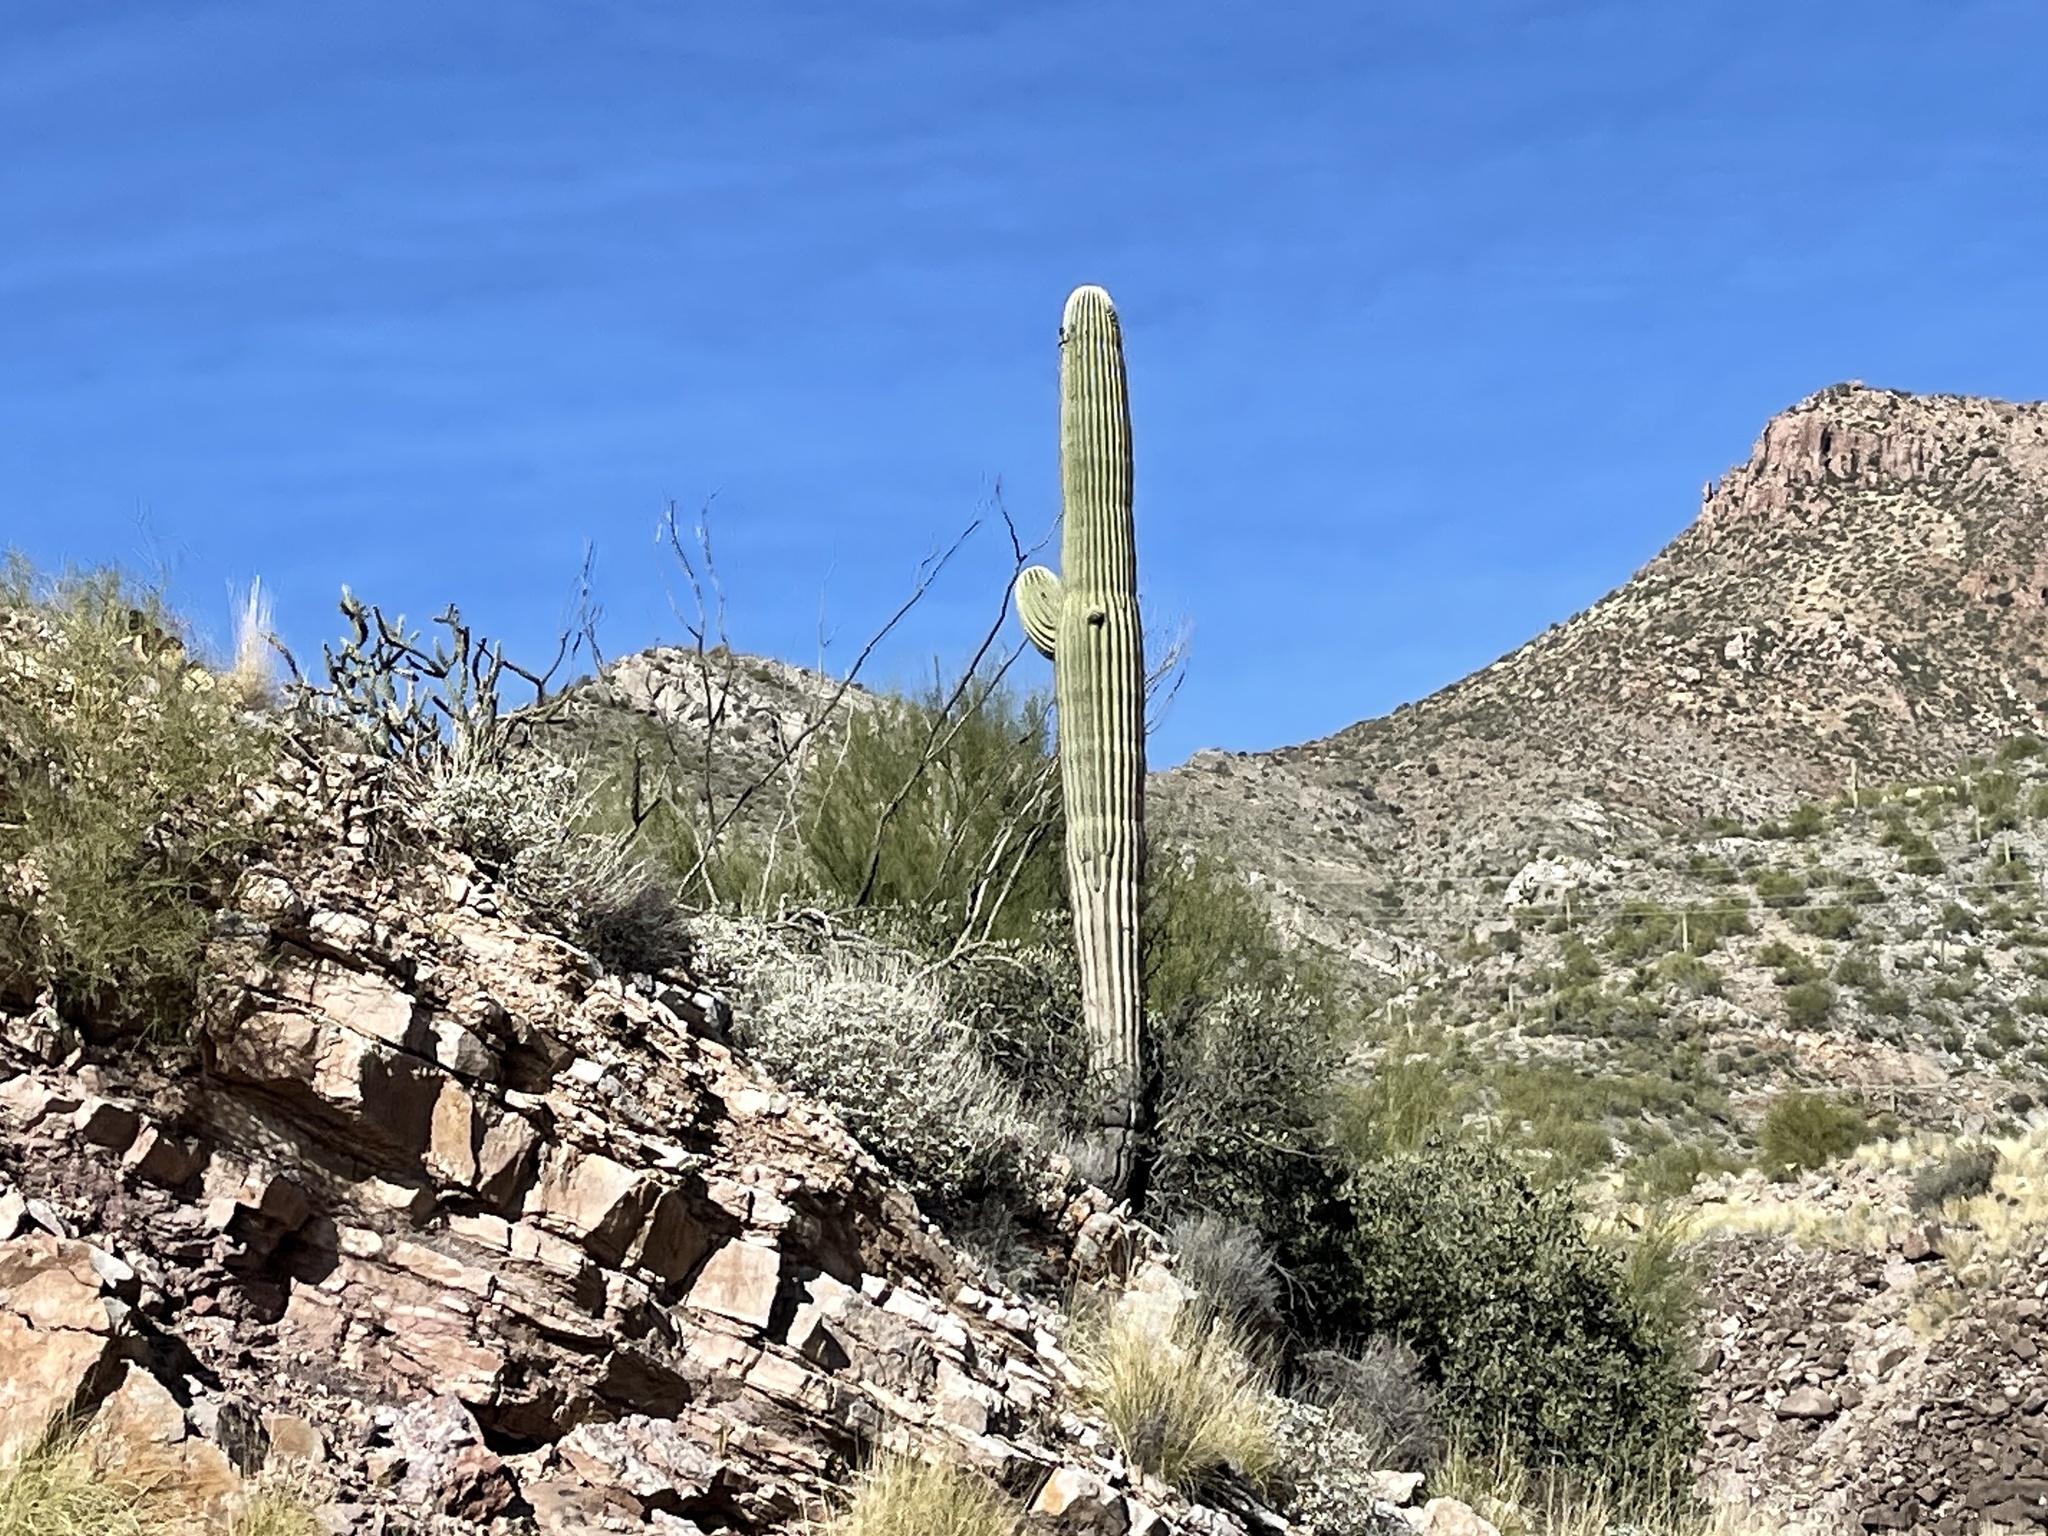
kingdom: Plantae
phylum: Tracheophyta
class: Magnoliopsida
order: Caryophyllales
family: Cactaceae
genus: Carnegiea
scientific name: Carnegiea gigantea
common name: Saguaro
